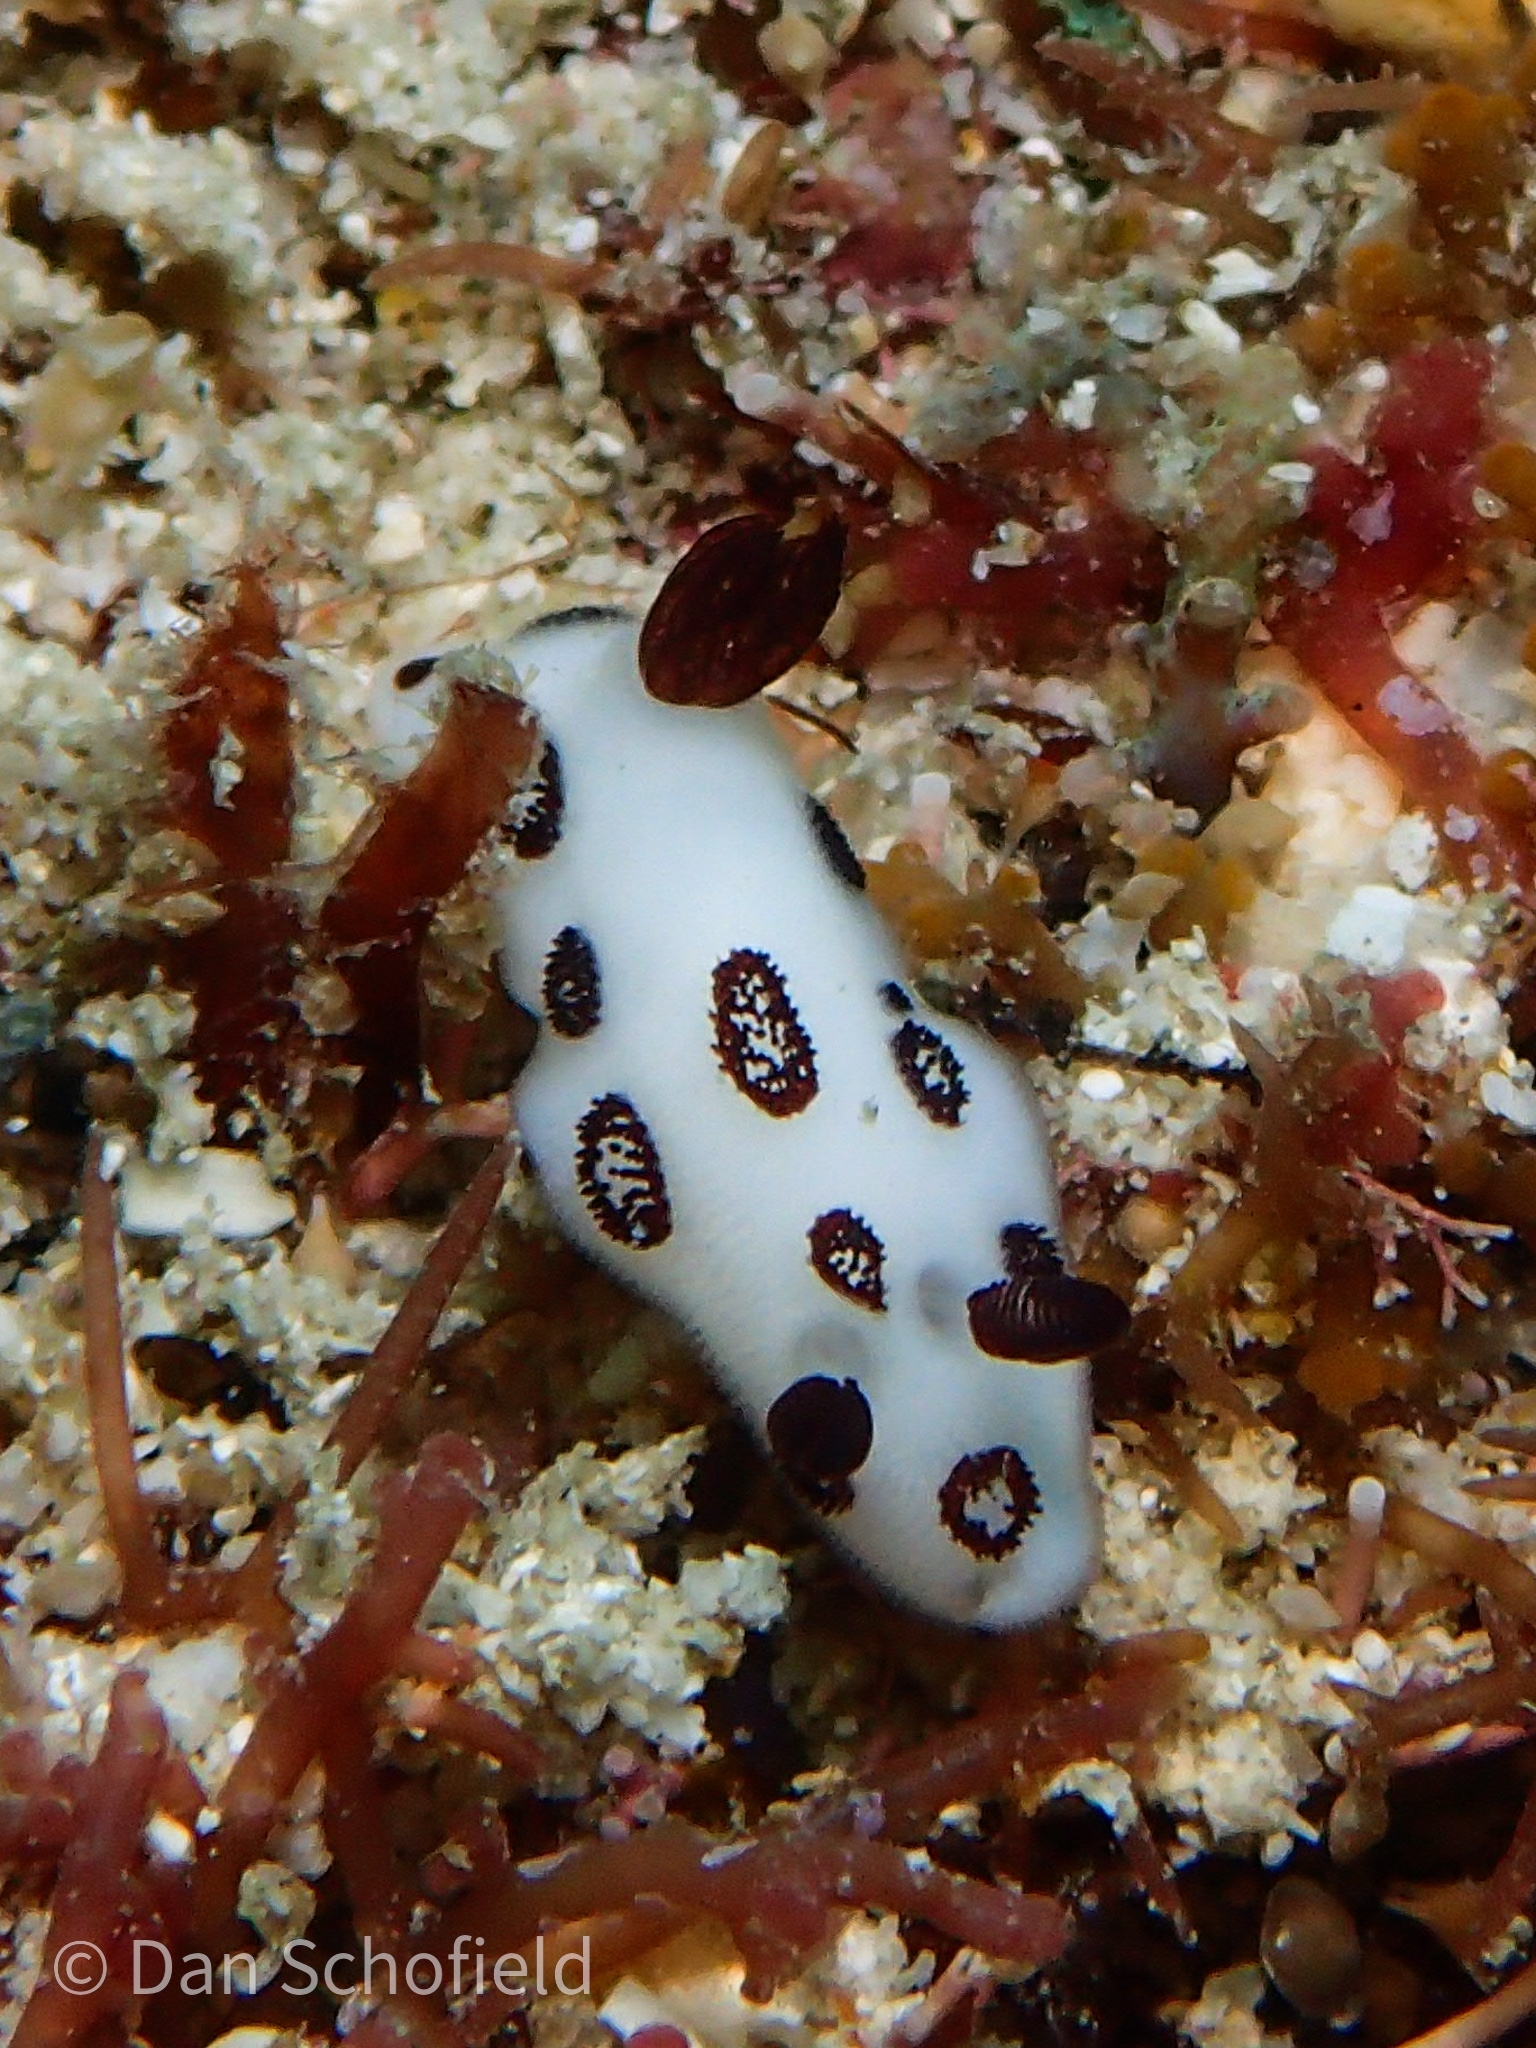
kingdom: Animalia
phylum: Mollusca
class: Gastropoda
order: Nudibranchia
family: Discodorididae
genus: Jorunna
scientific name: Jorunna funebris
